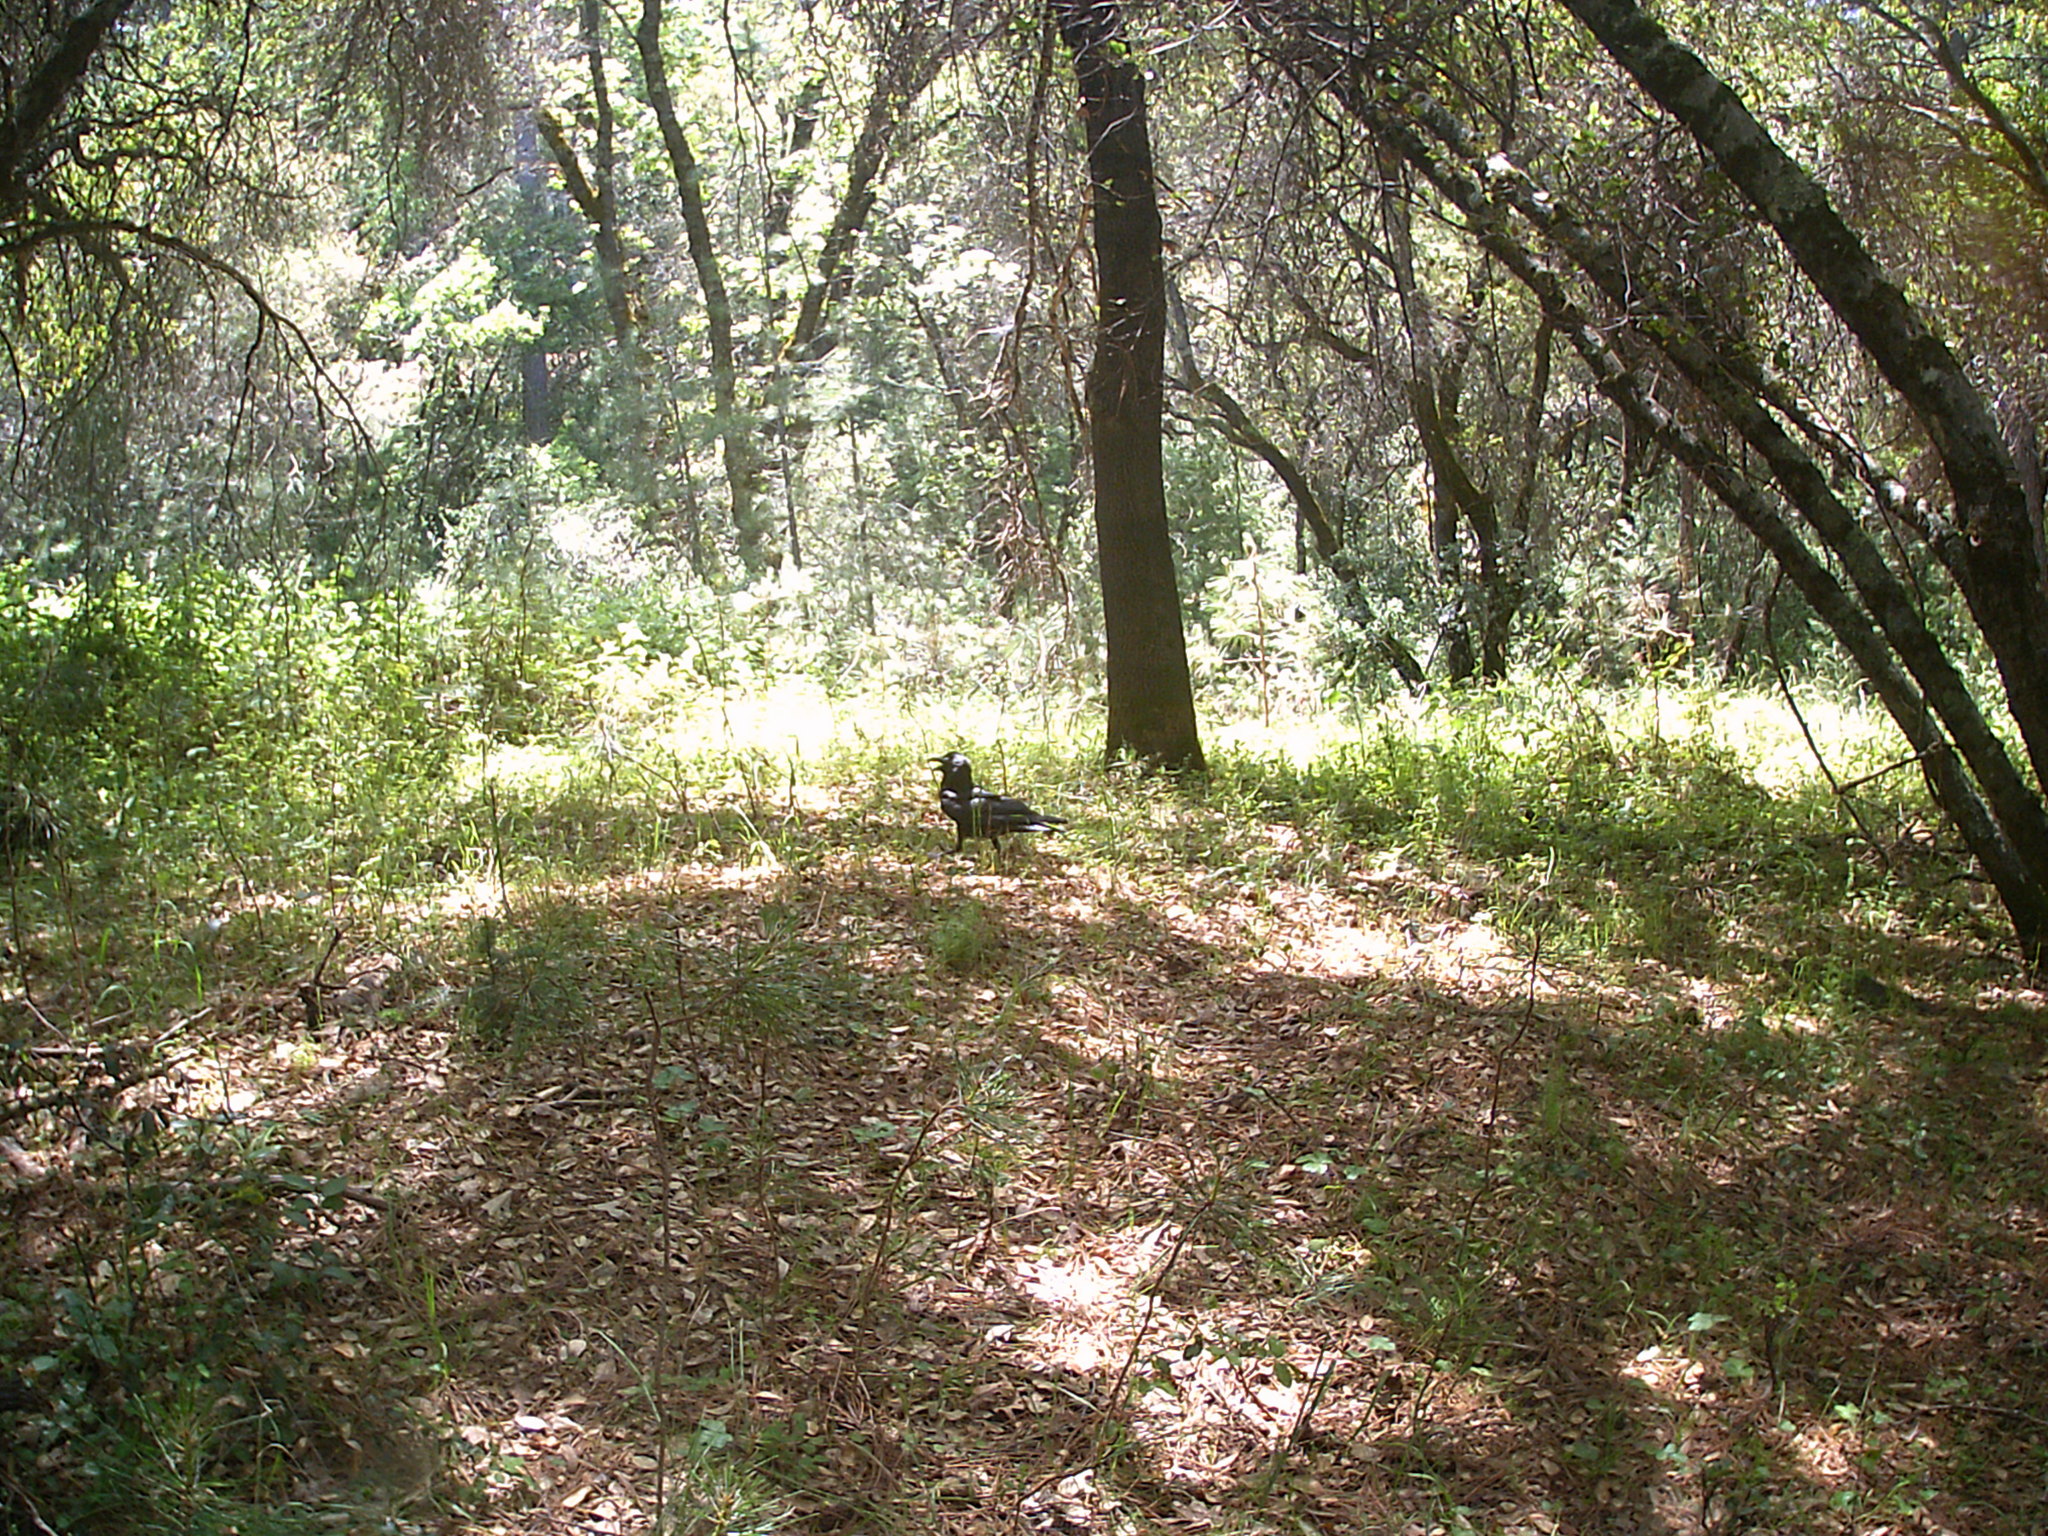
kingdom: Animalia
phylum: Chordata
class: Aves
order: Passeriformes
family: Corvidae
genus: Corvus
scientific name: Corvus brachyrhynchos
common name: American crow
